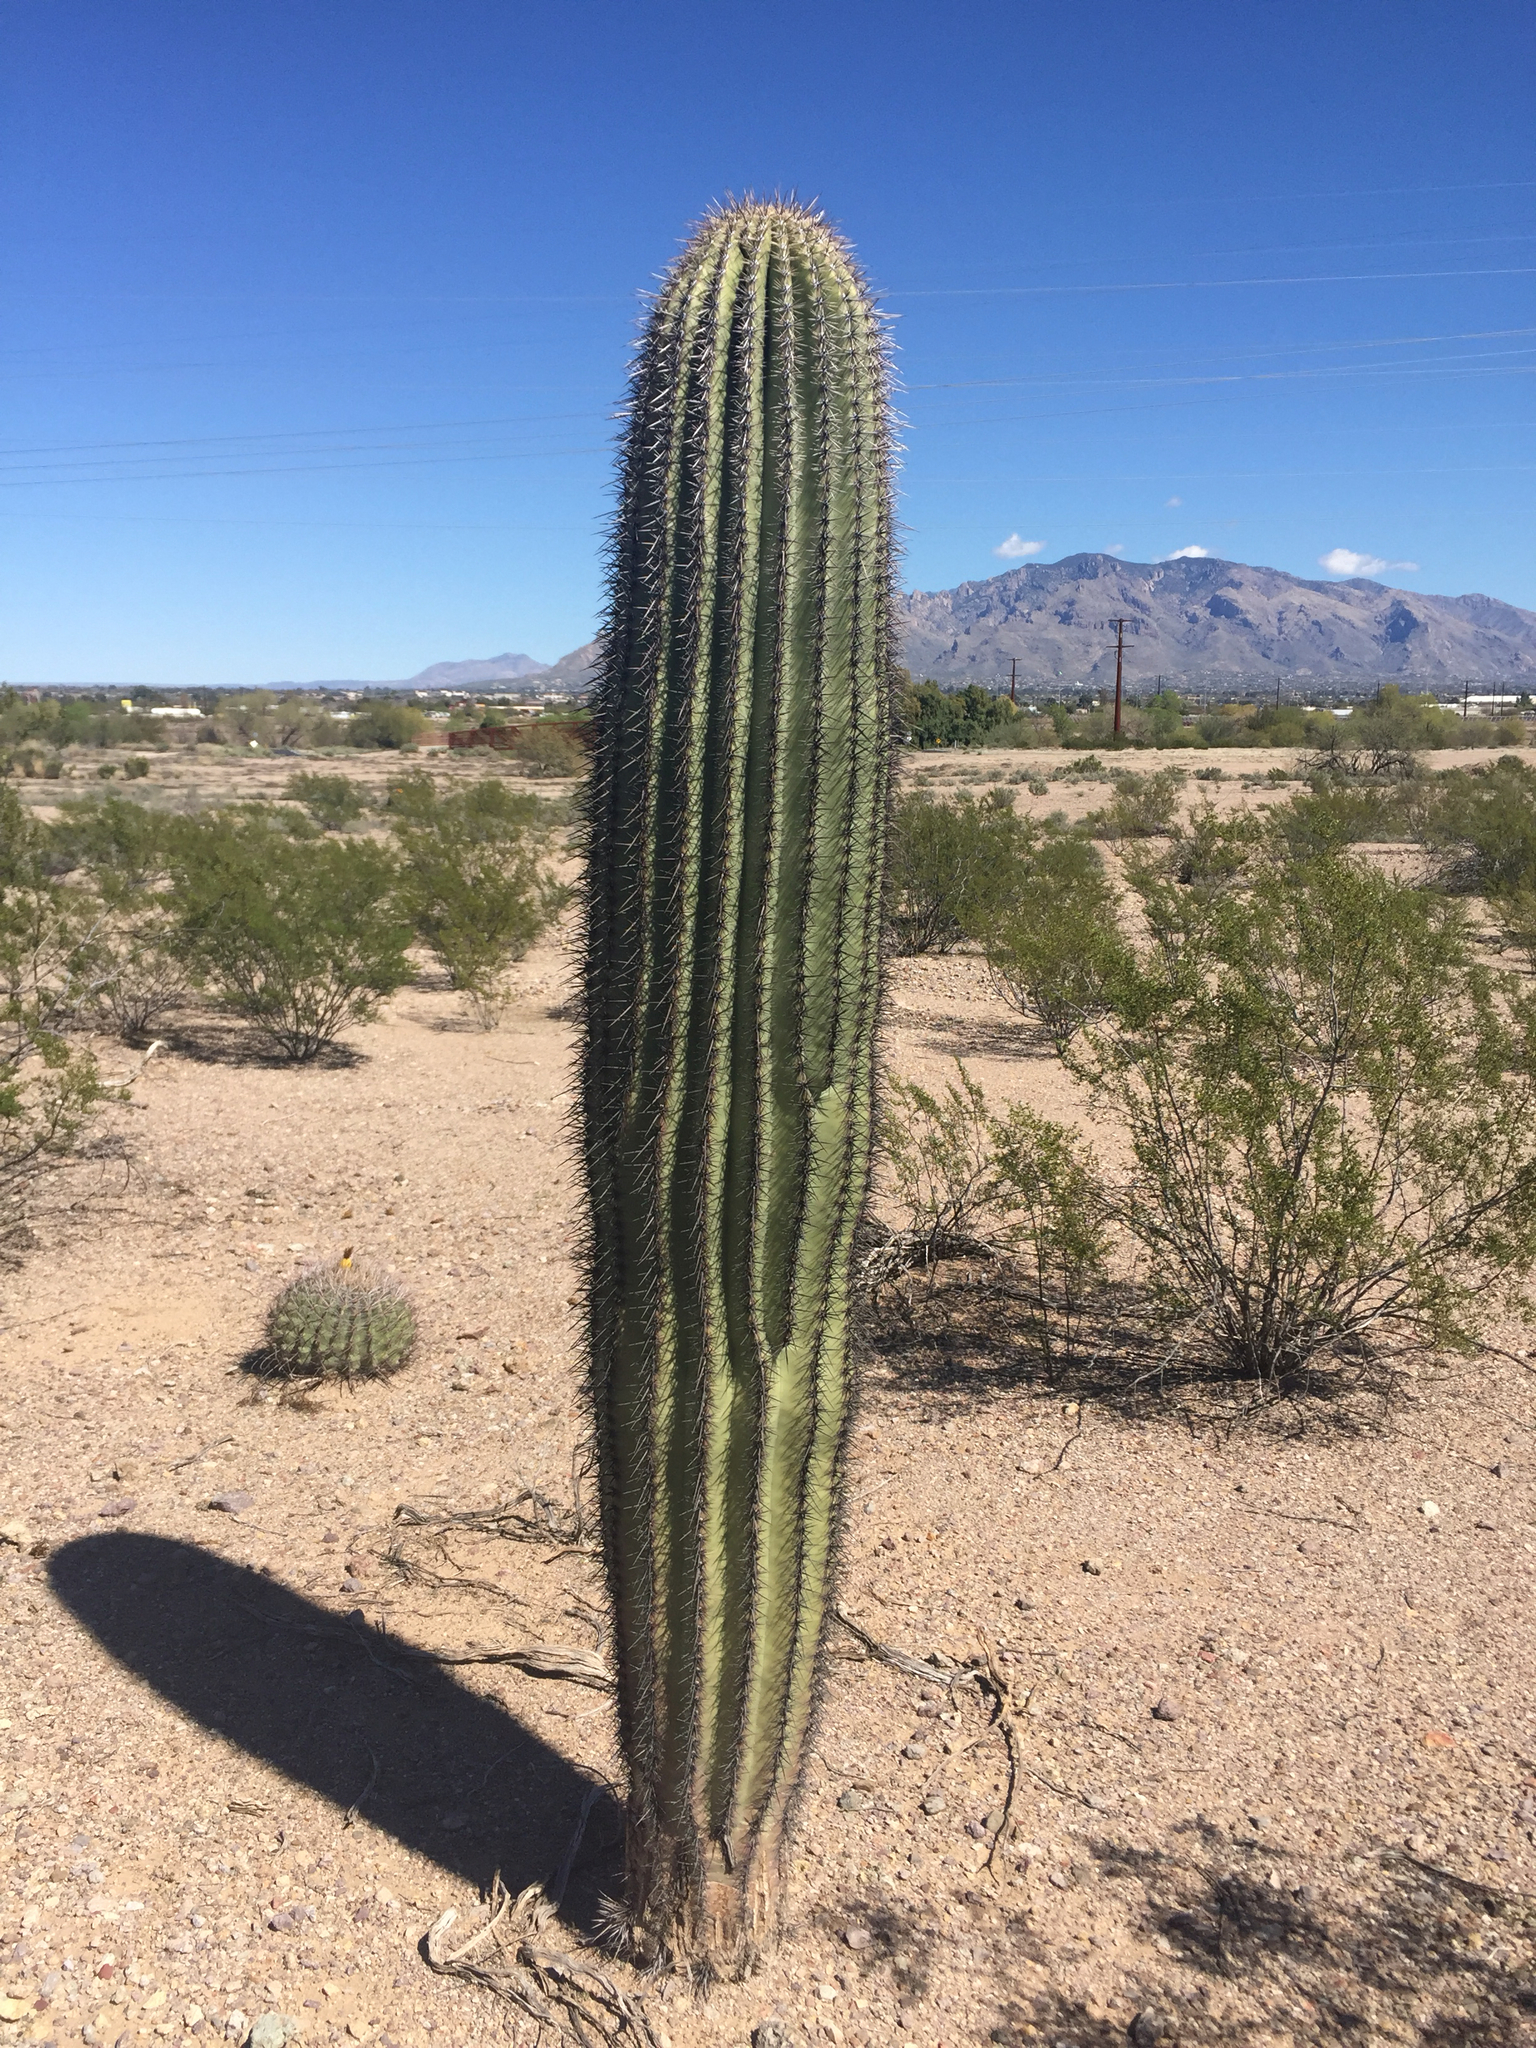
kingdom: Plantae
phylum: Tracheophyta
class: Magnoliopsida
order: Caryophyllales
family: Cactaceae
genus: Carnegiea
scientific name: Carnegiea gigantea
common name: Saguaro
